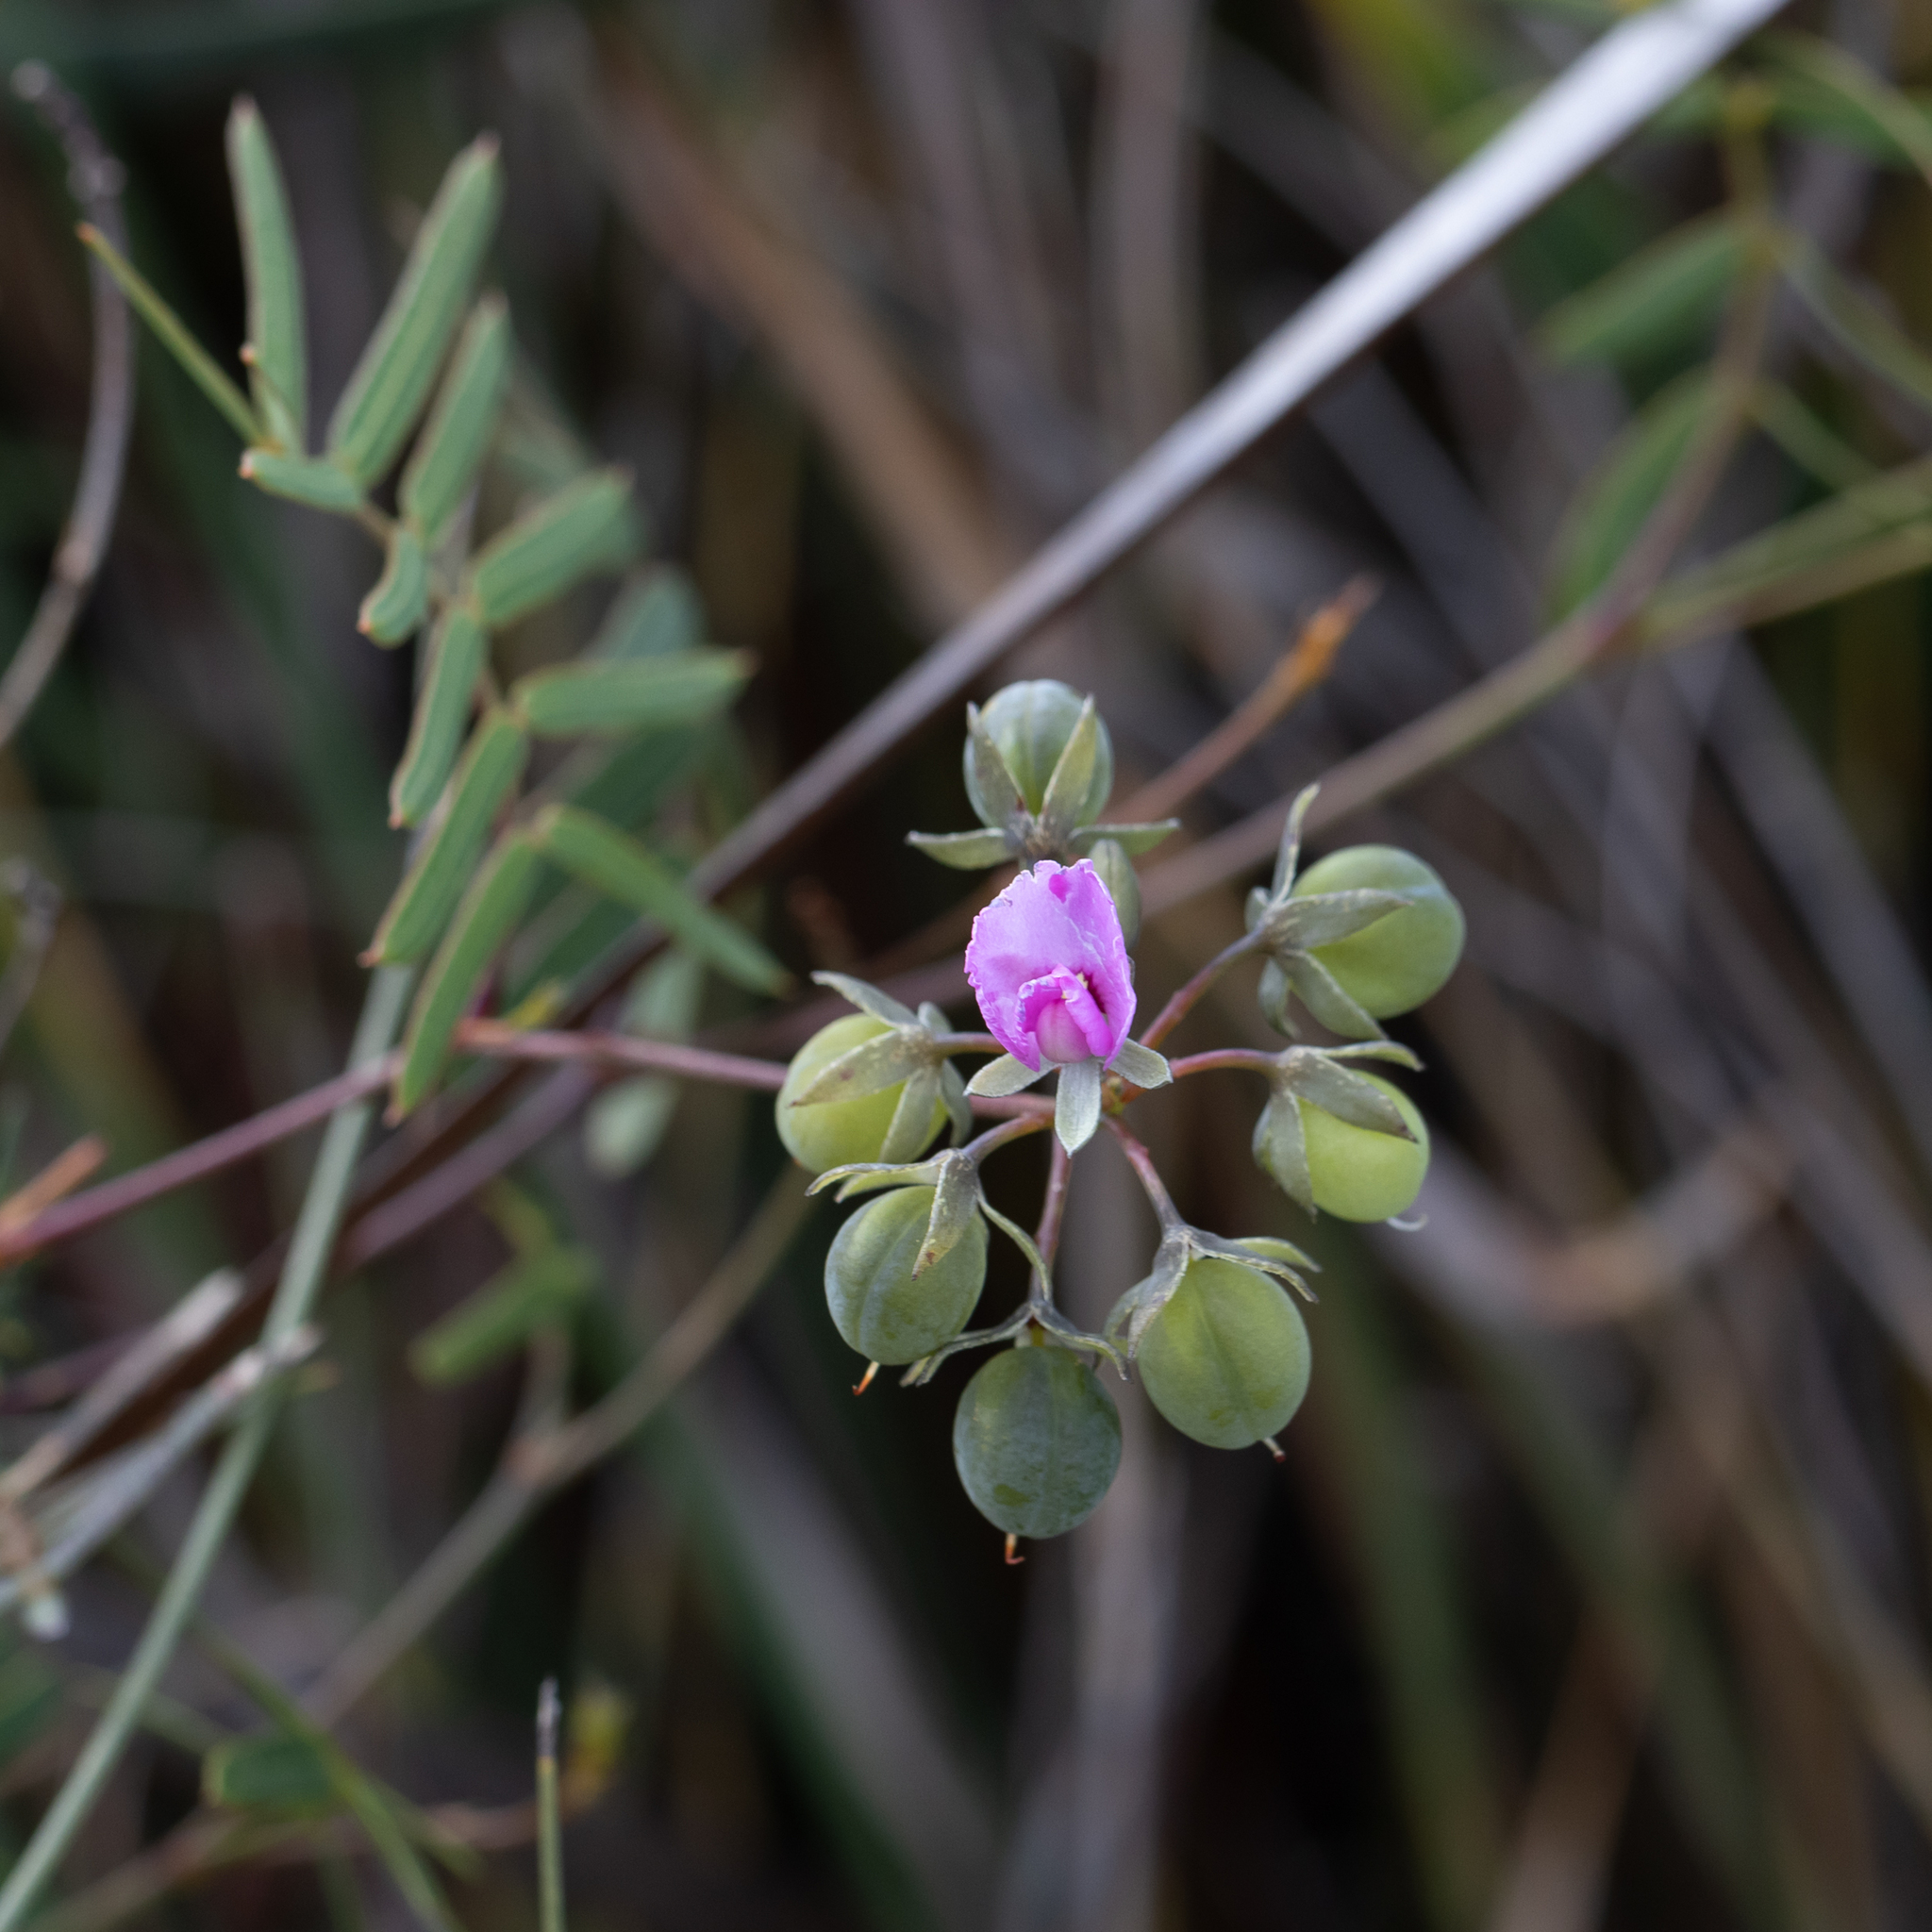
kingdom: Plantae
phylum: Tracheophyta
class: Magnoliopsida
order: Fabales
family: Fabaceae
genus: Gompholobium
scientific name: Gompholobium knightianum
